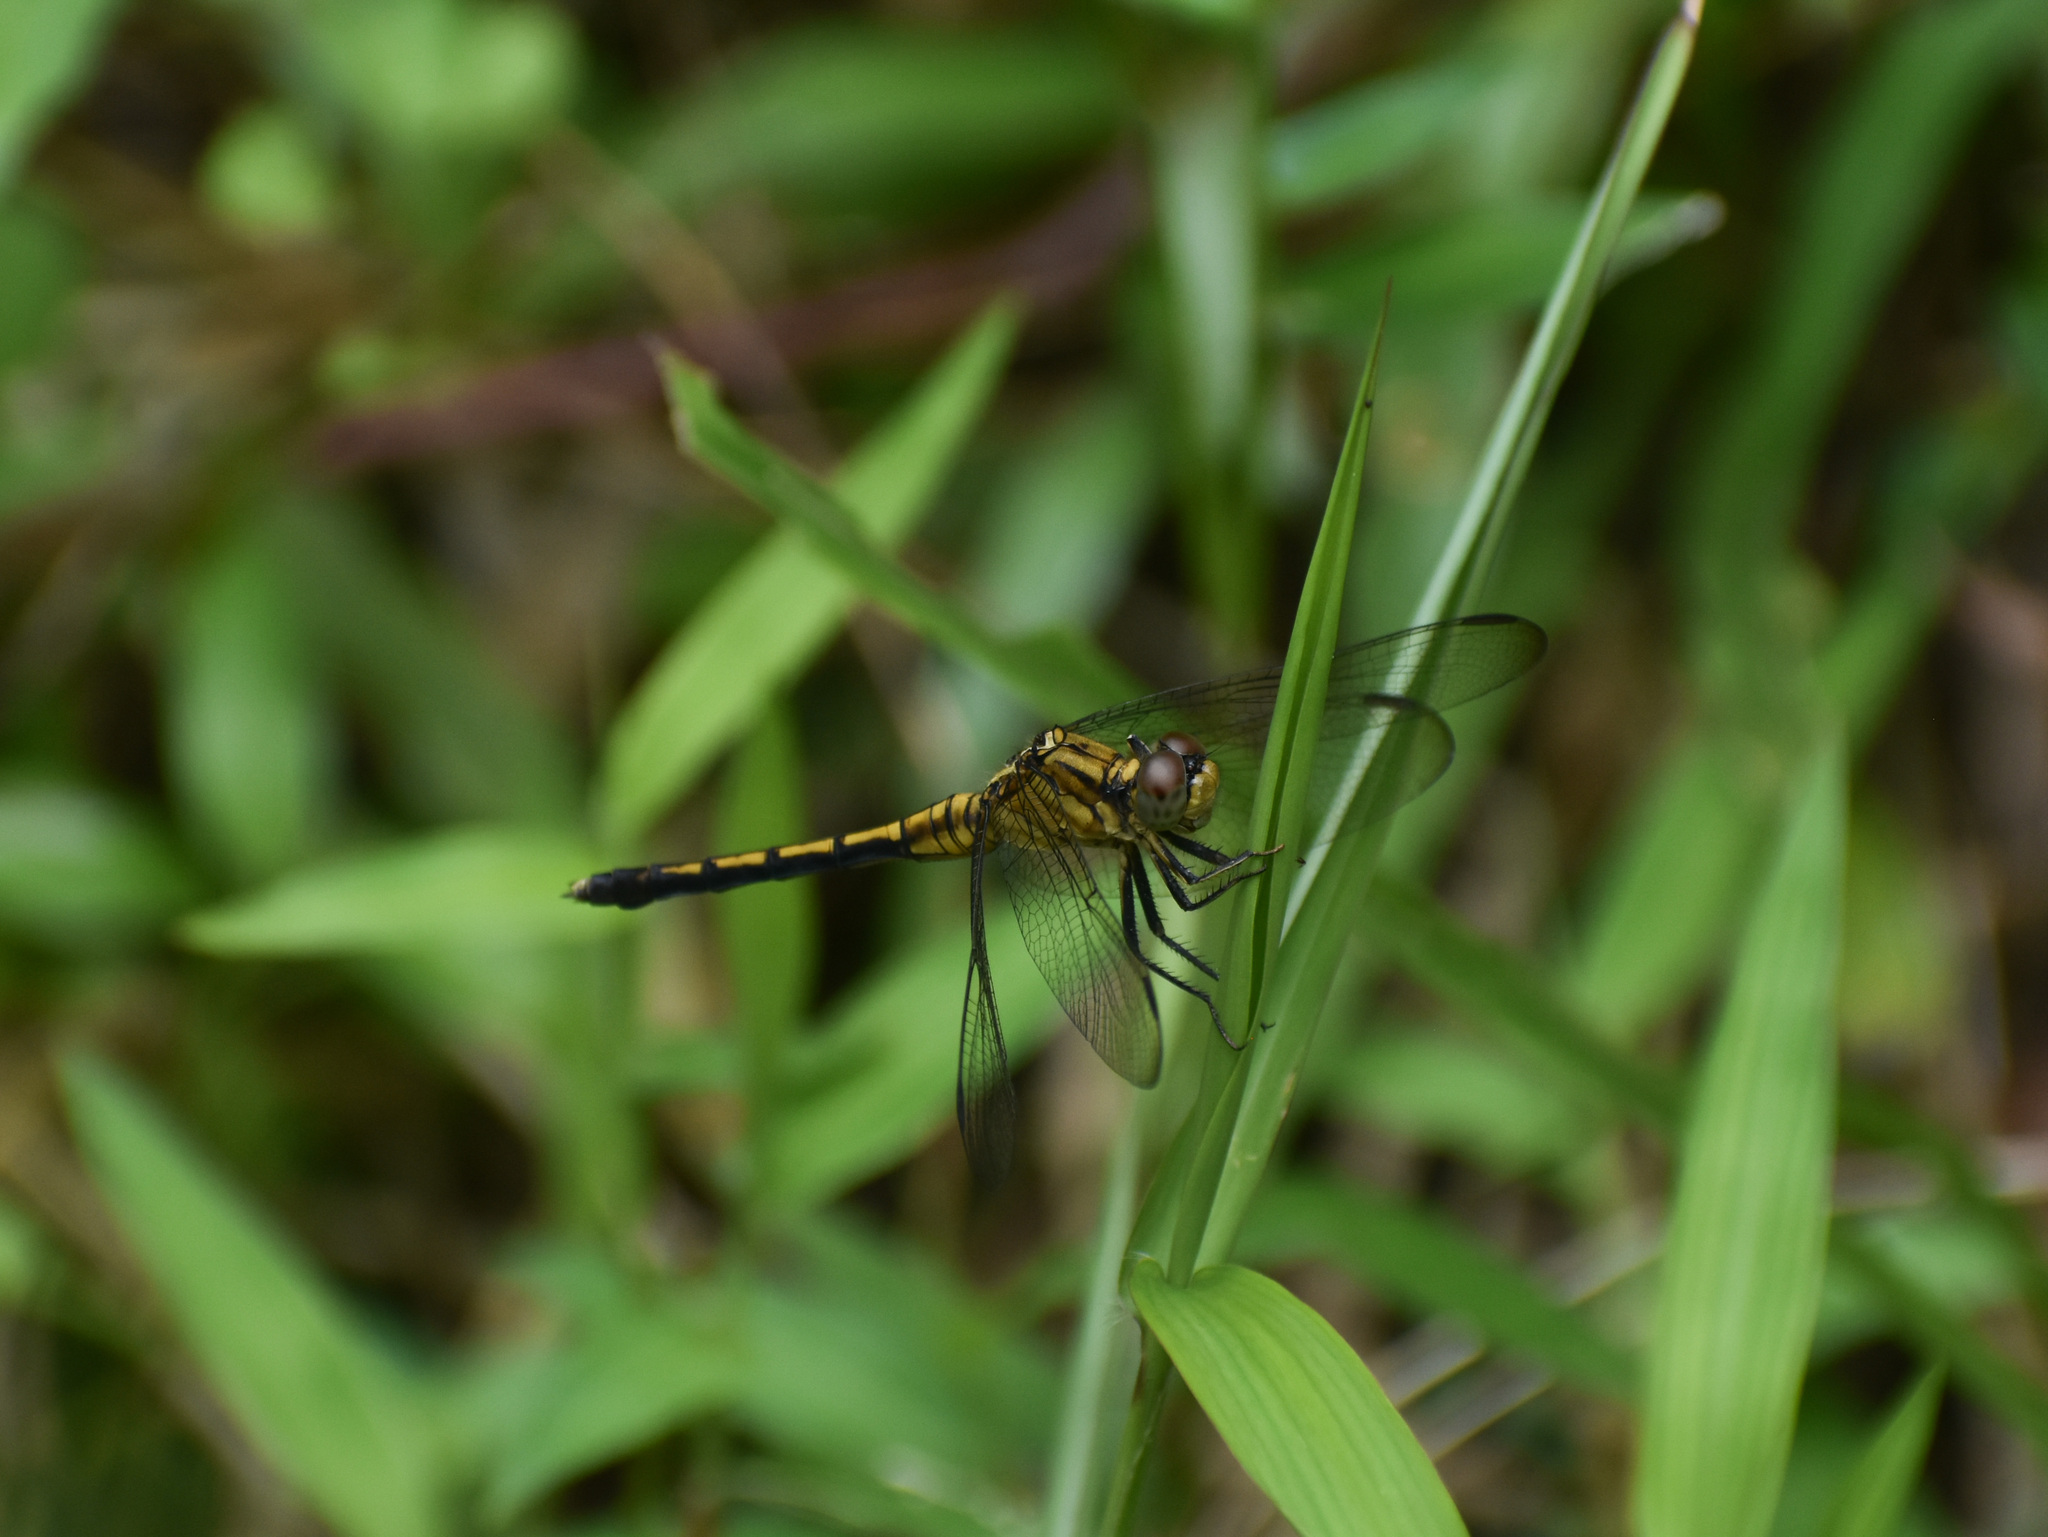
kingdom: Animalia
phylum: Arthropoda
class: Insecta
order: Odonata
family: Libellulidae
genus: Orthetrum
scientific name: Orthetrum luzonicum
